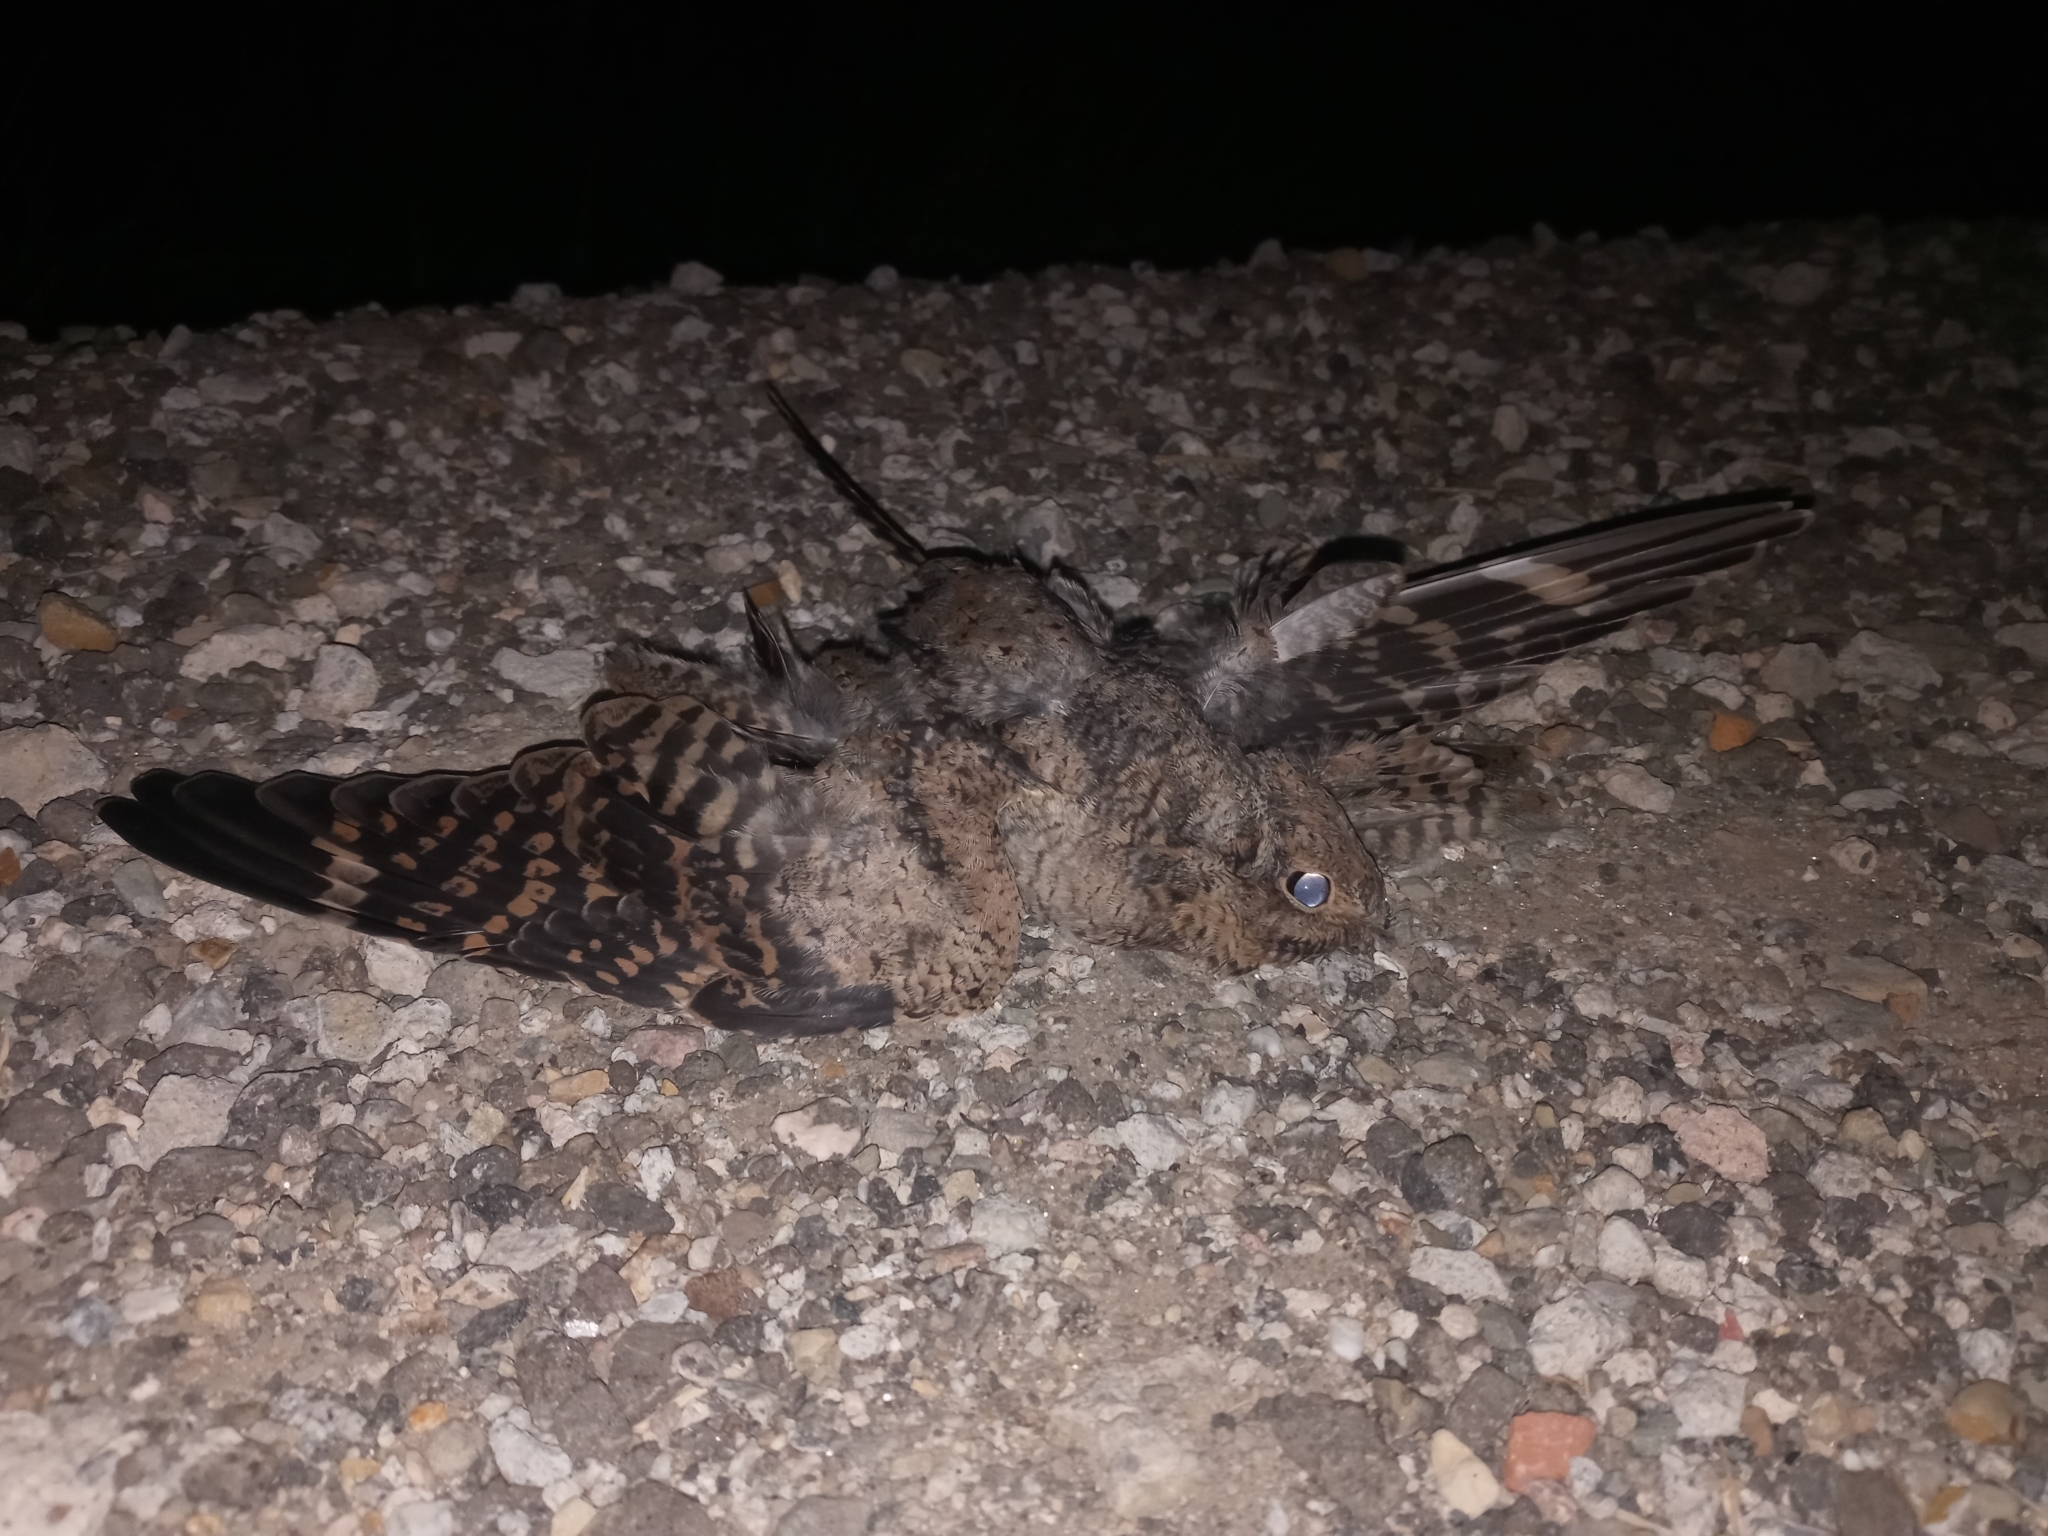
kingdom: Animalia
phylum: Chordata
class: Aves
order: Caprimulgiformes
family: Caprimulgidae
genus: Chordeiles
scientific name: Chordeiles acutipennis
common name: Lesser nighthawk
